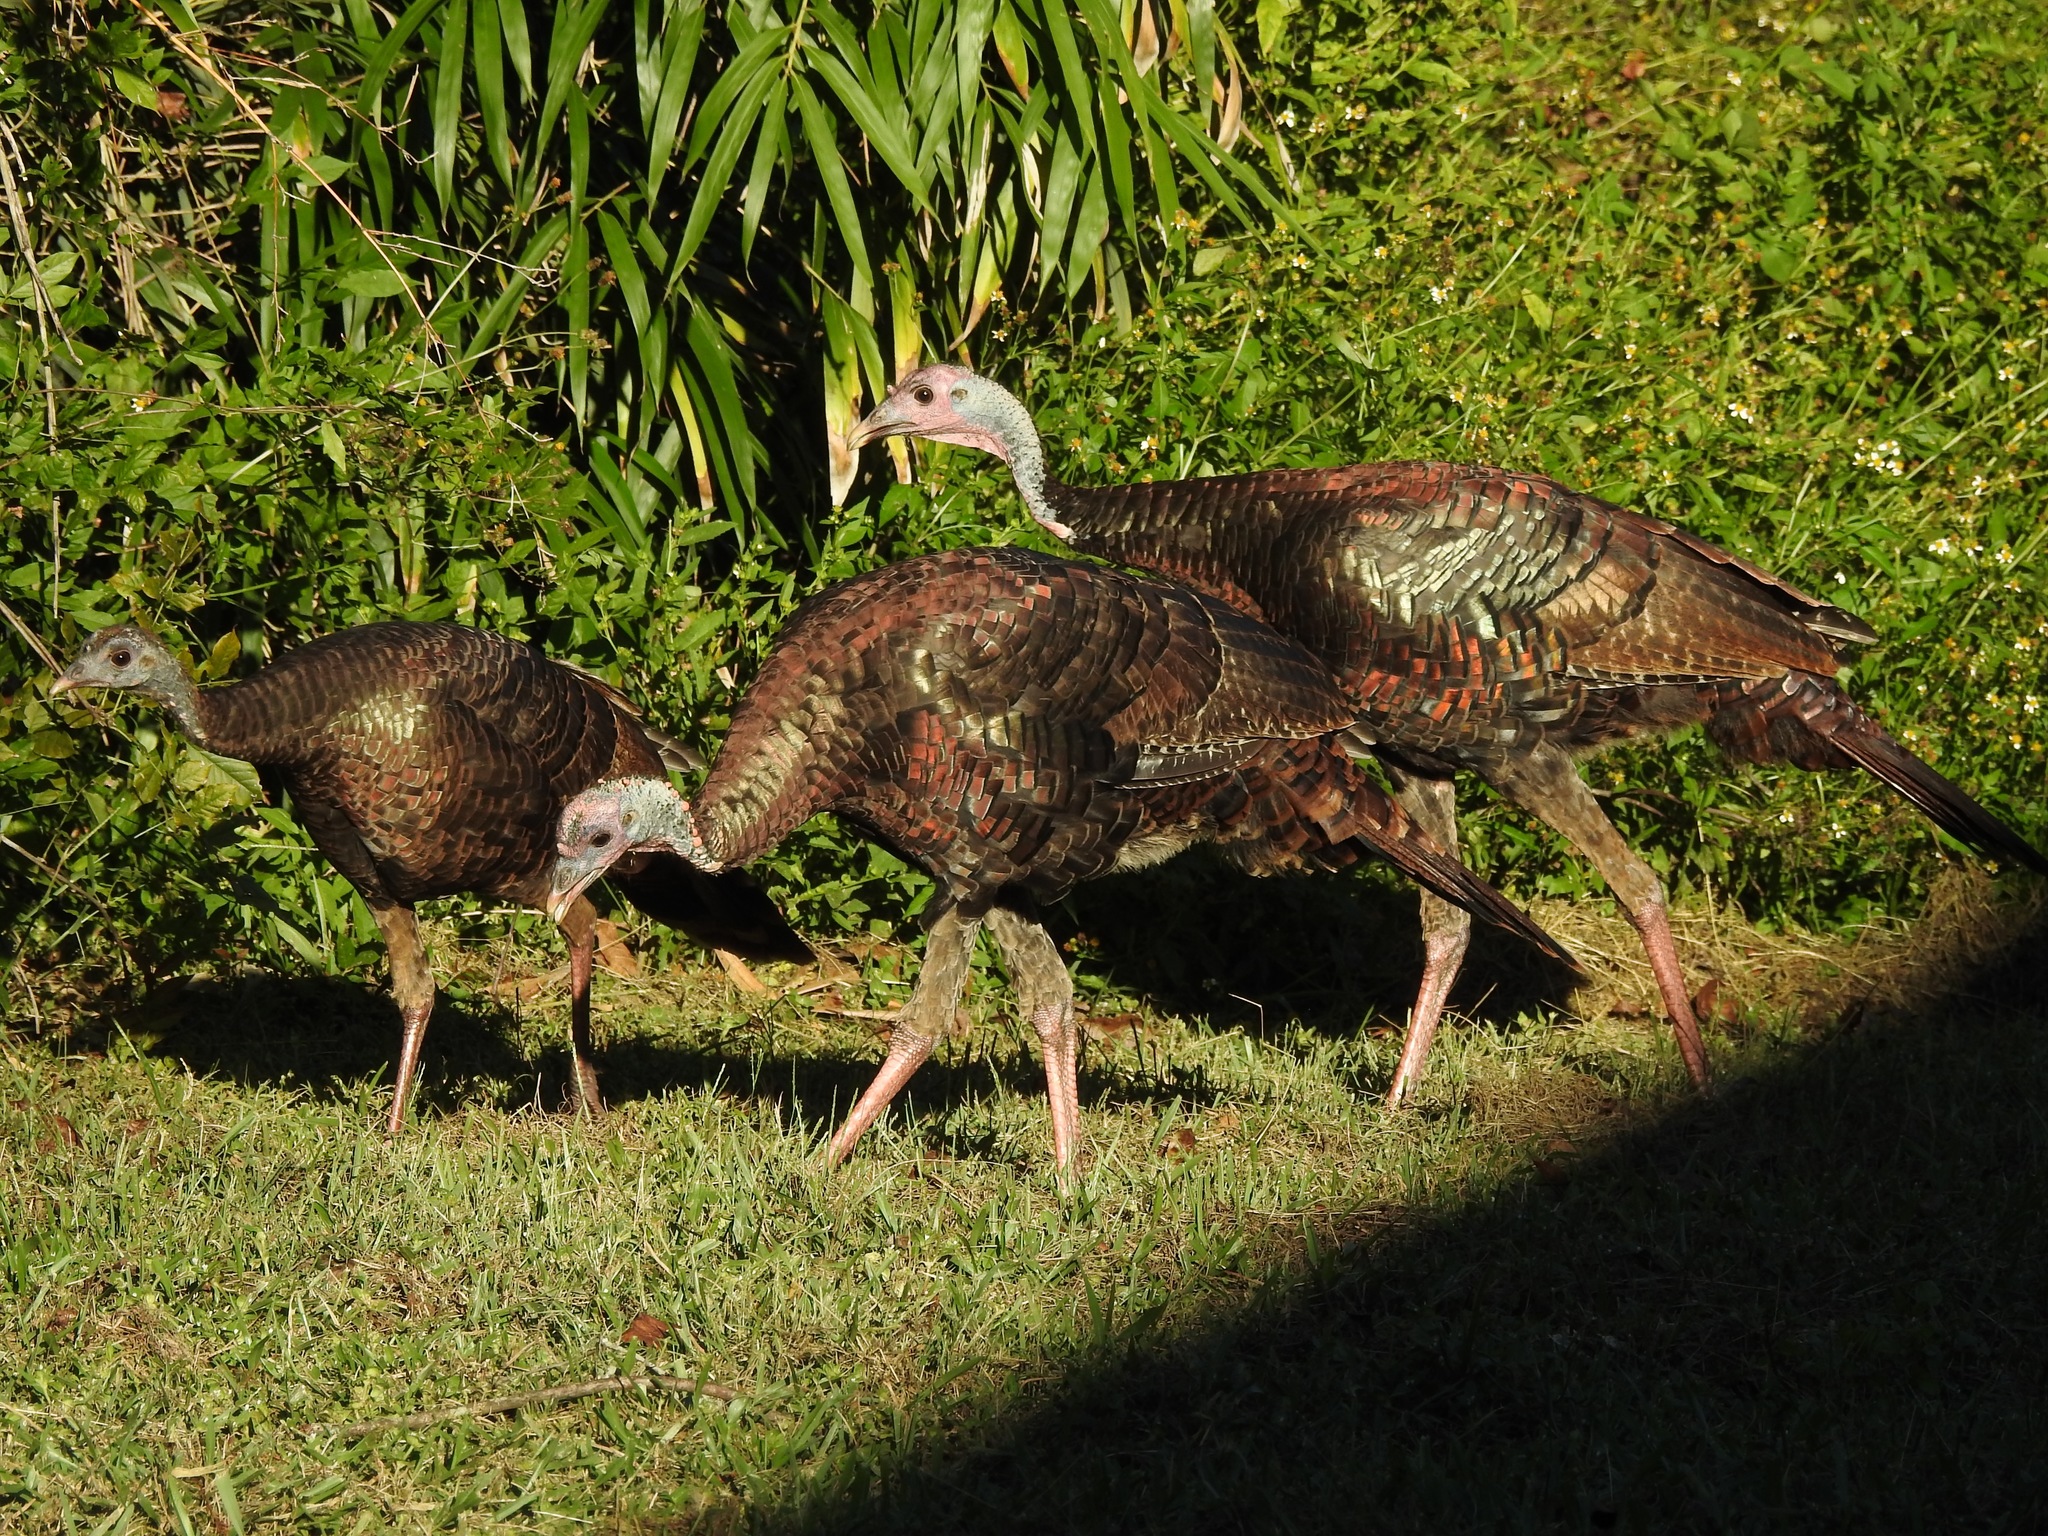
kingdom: Animalia
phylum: Chordata
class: Aves
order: Galliformes
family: Phasianidae
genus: Meleagris
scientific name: Meleagris gallopavo
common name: Wild turkey
